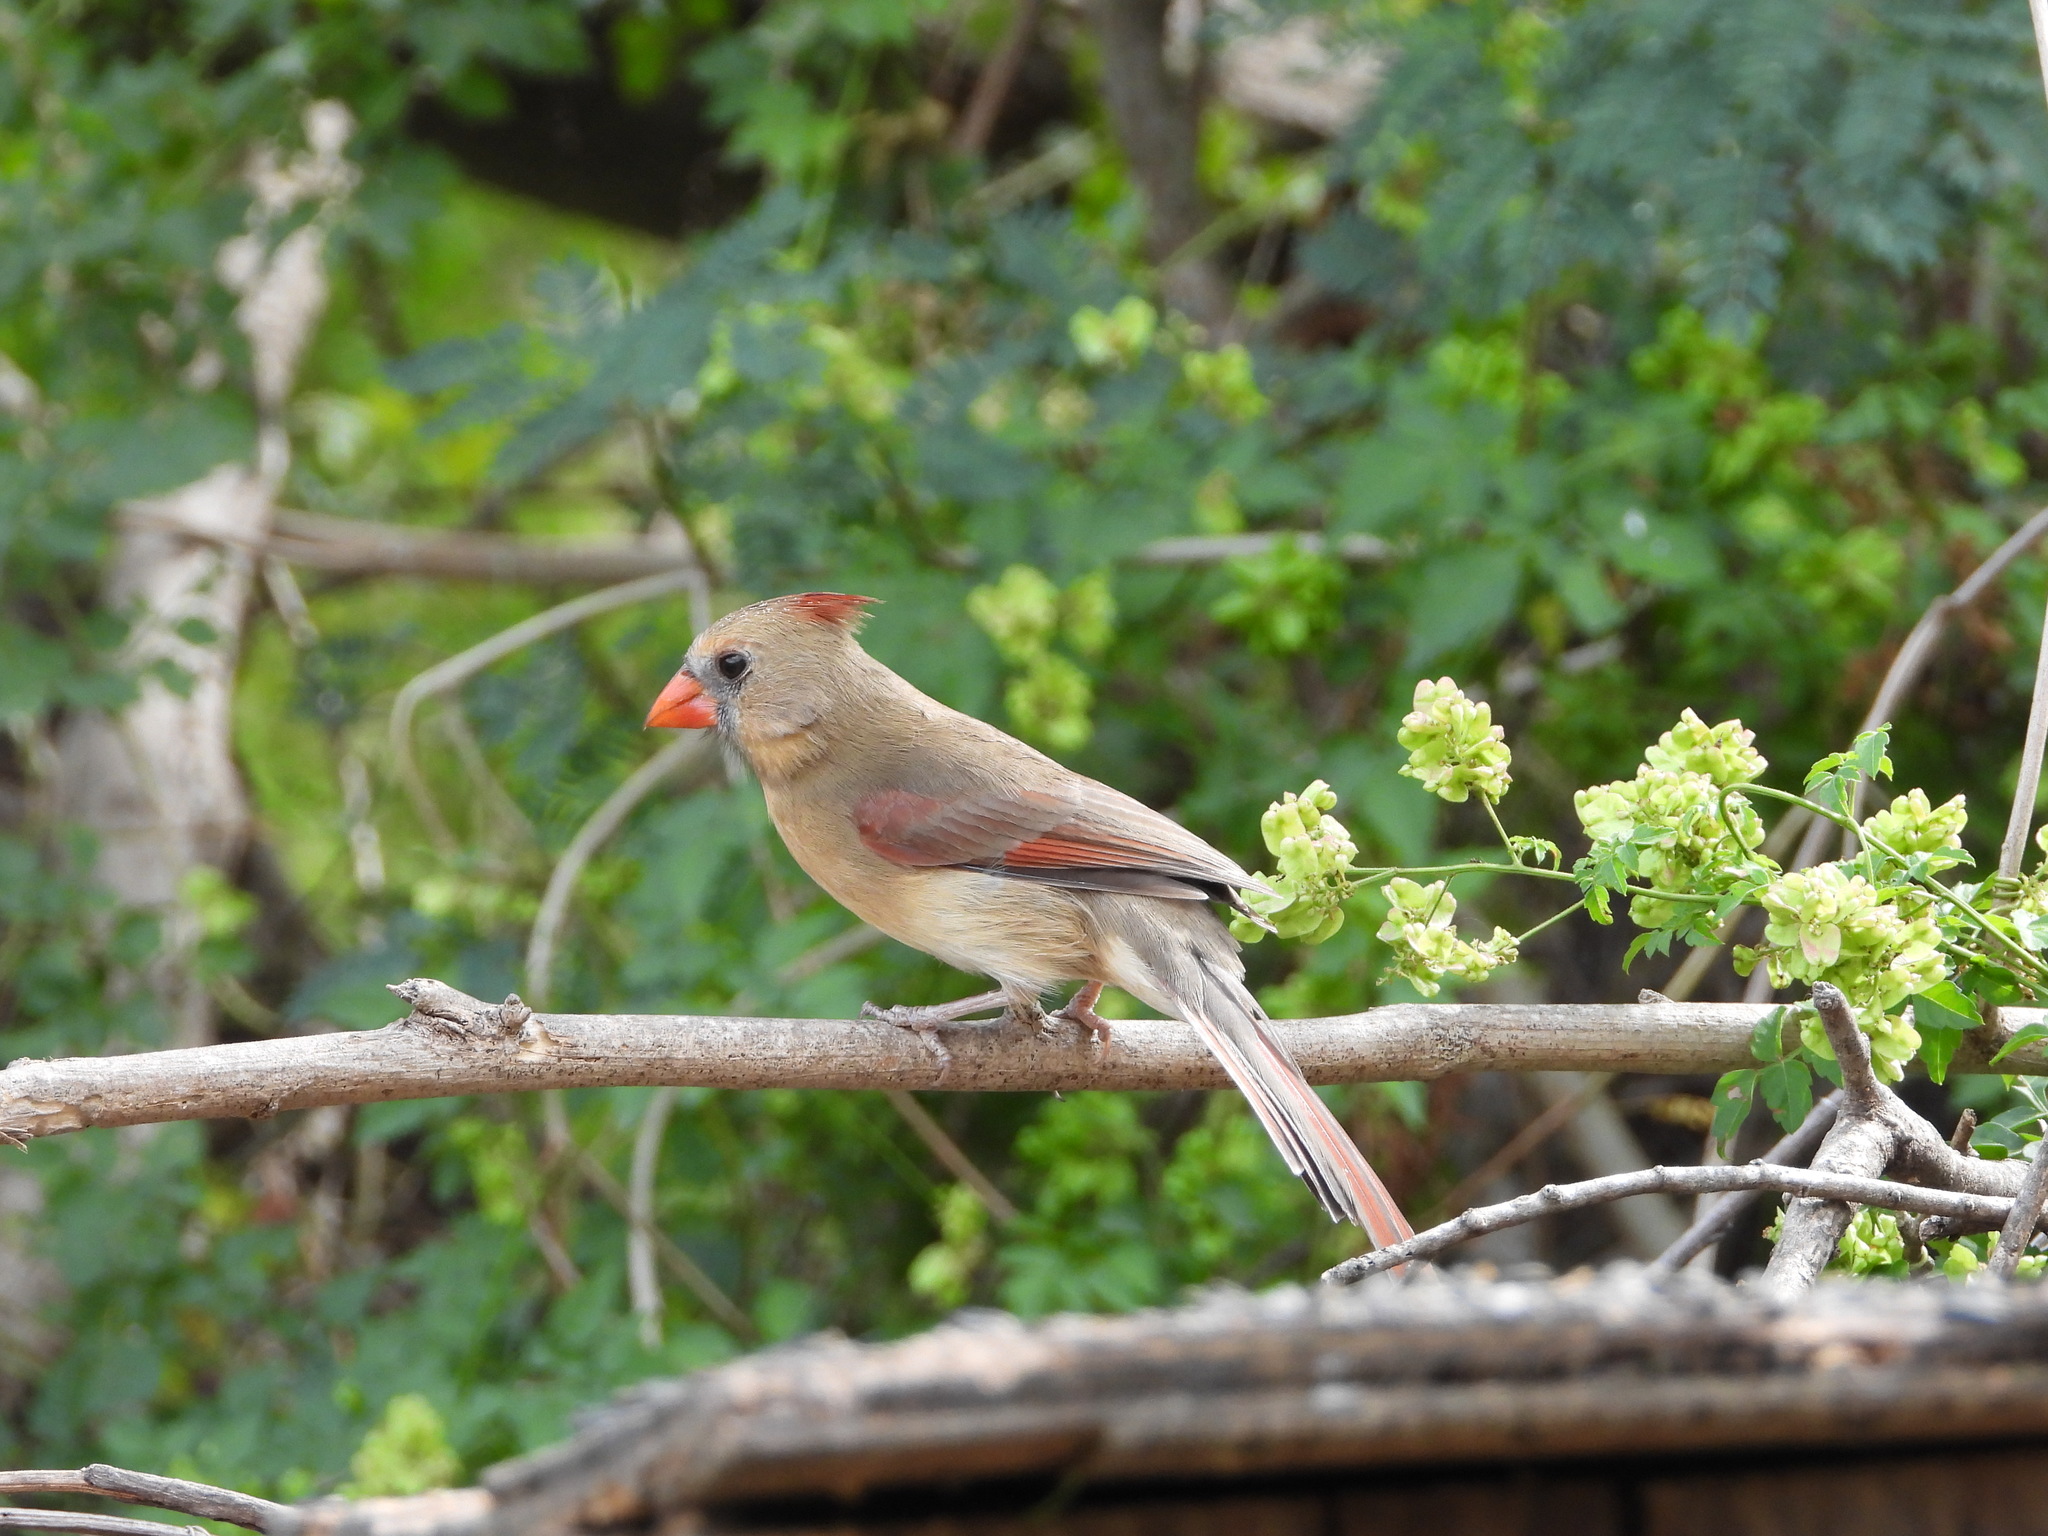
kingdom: Animalia
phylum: Chordata
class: Aves
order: Passeriformes
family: Cardinalidae
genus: Cardinalis
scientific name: Cardinalis cardinalis
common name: Northern cardinal
